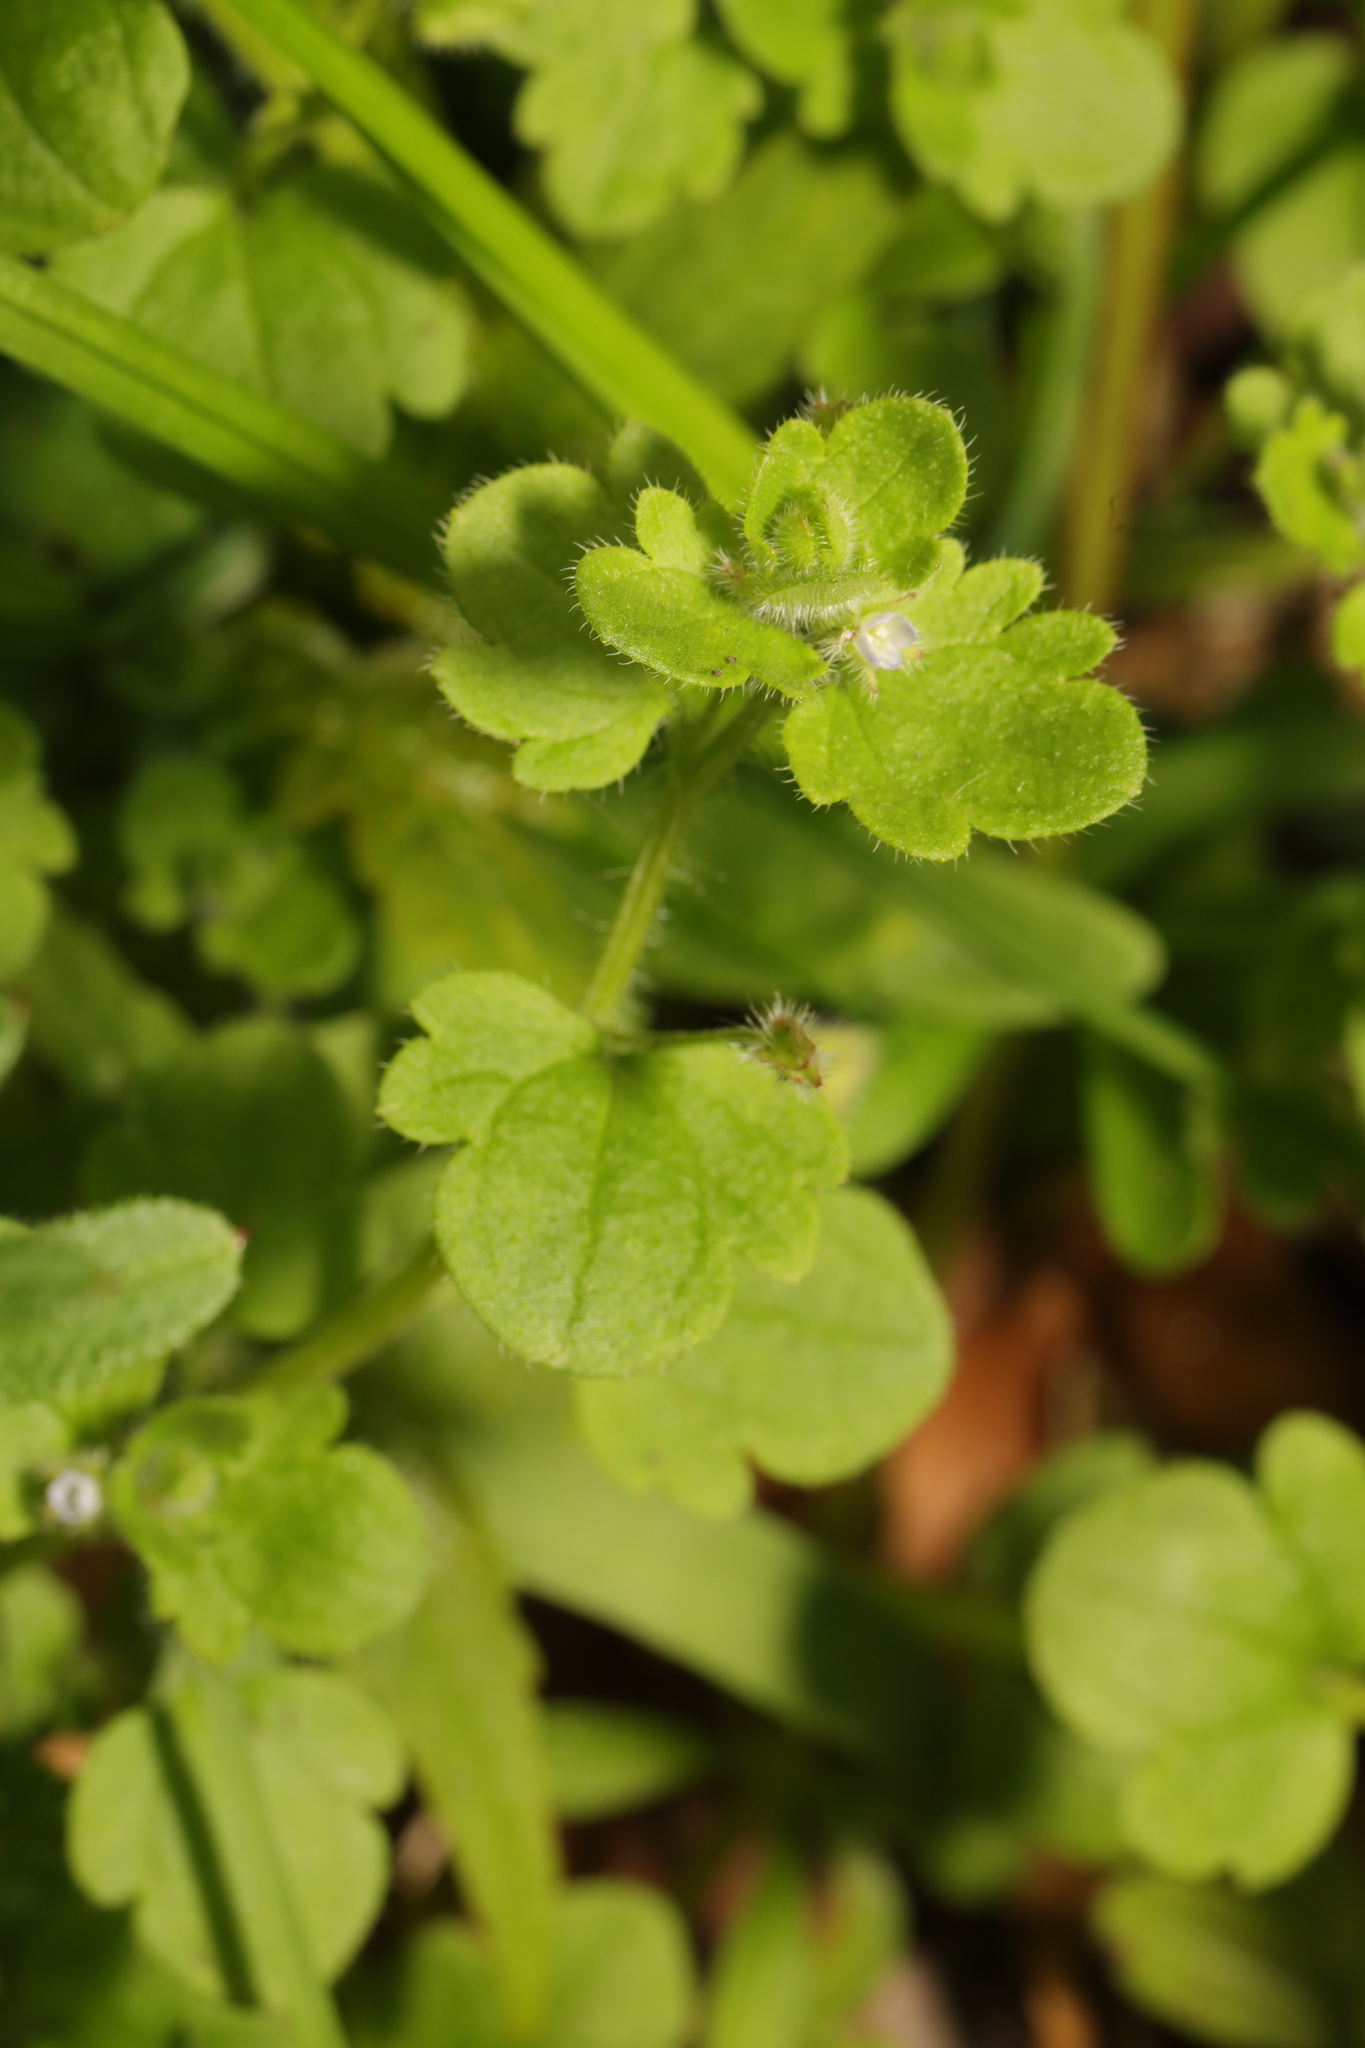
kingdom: Plantae
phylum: Tracheophyta
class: Magnoliopsida
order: Lamiales
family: Plantaginaceae
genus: Veronica
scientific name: Veronica sublobata
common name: False ivy-leaved speedwell
